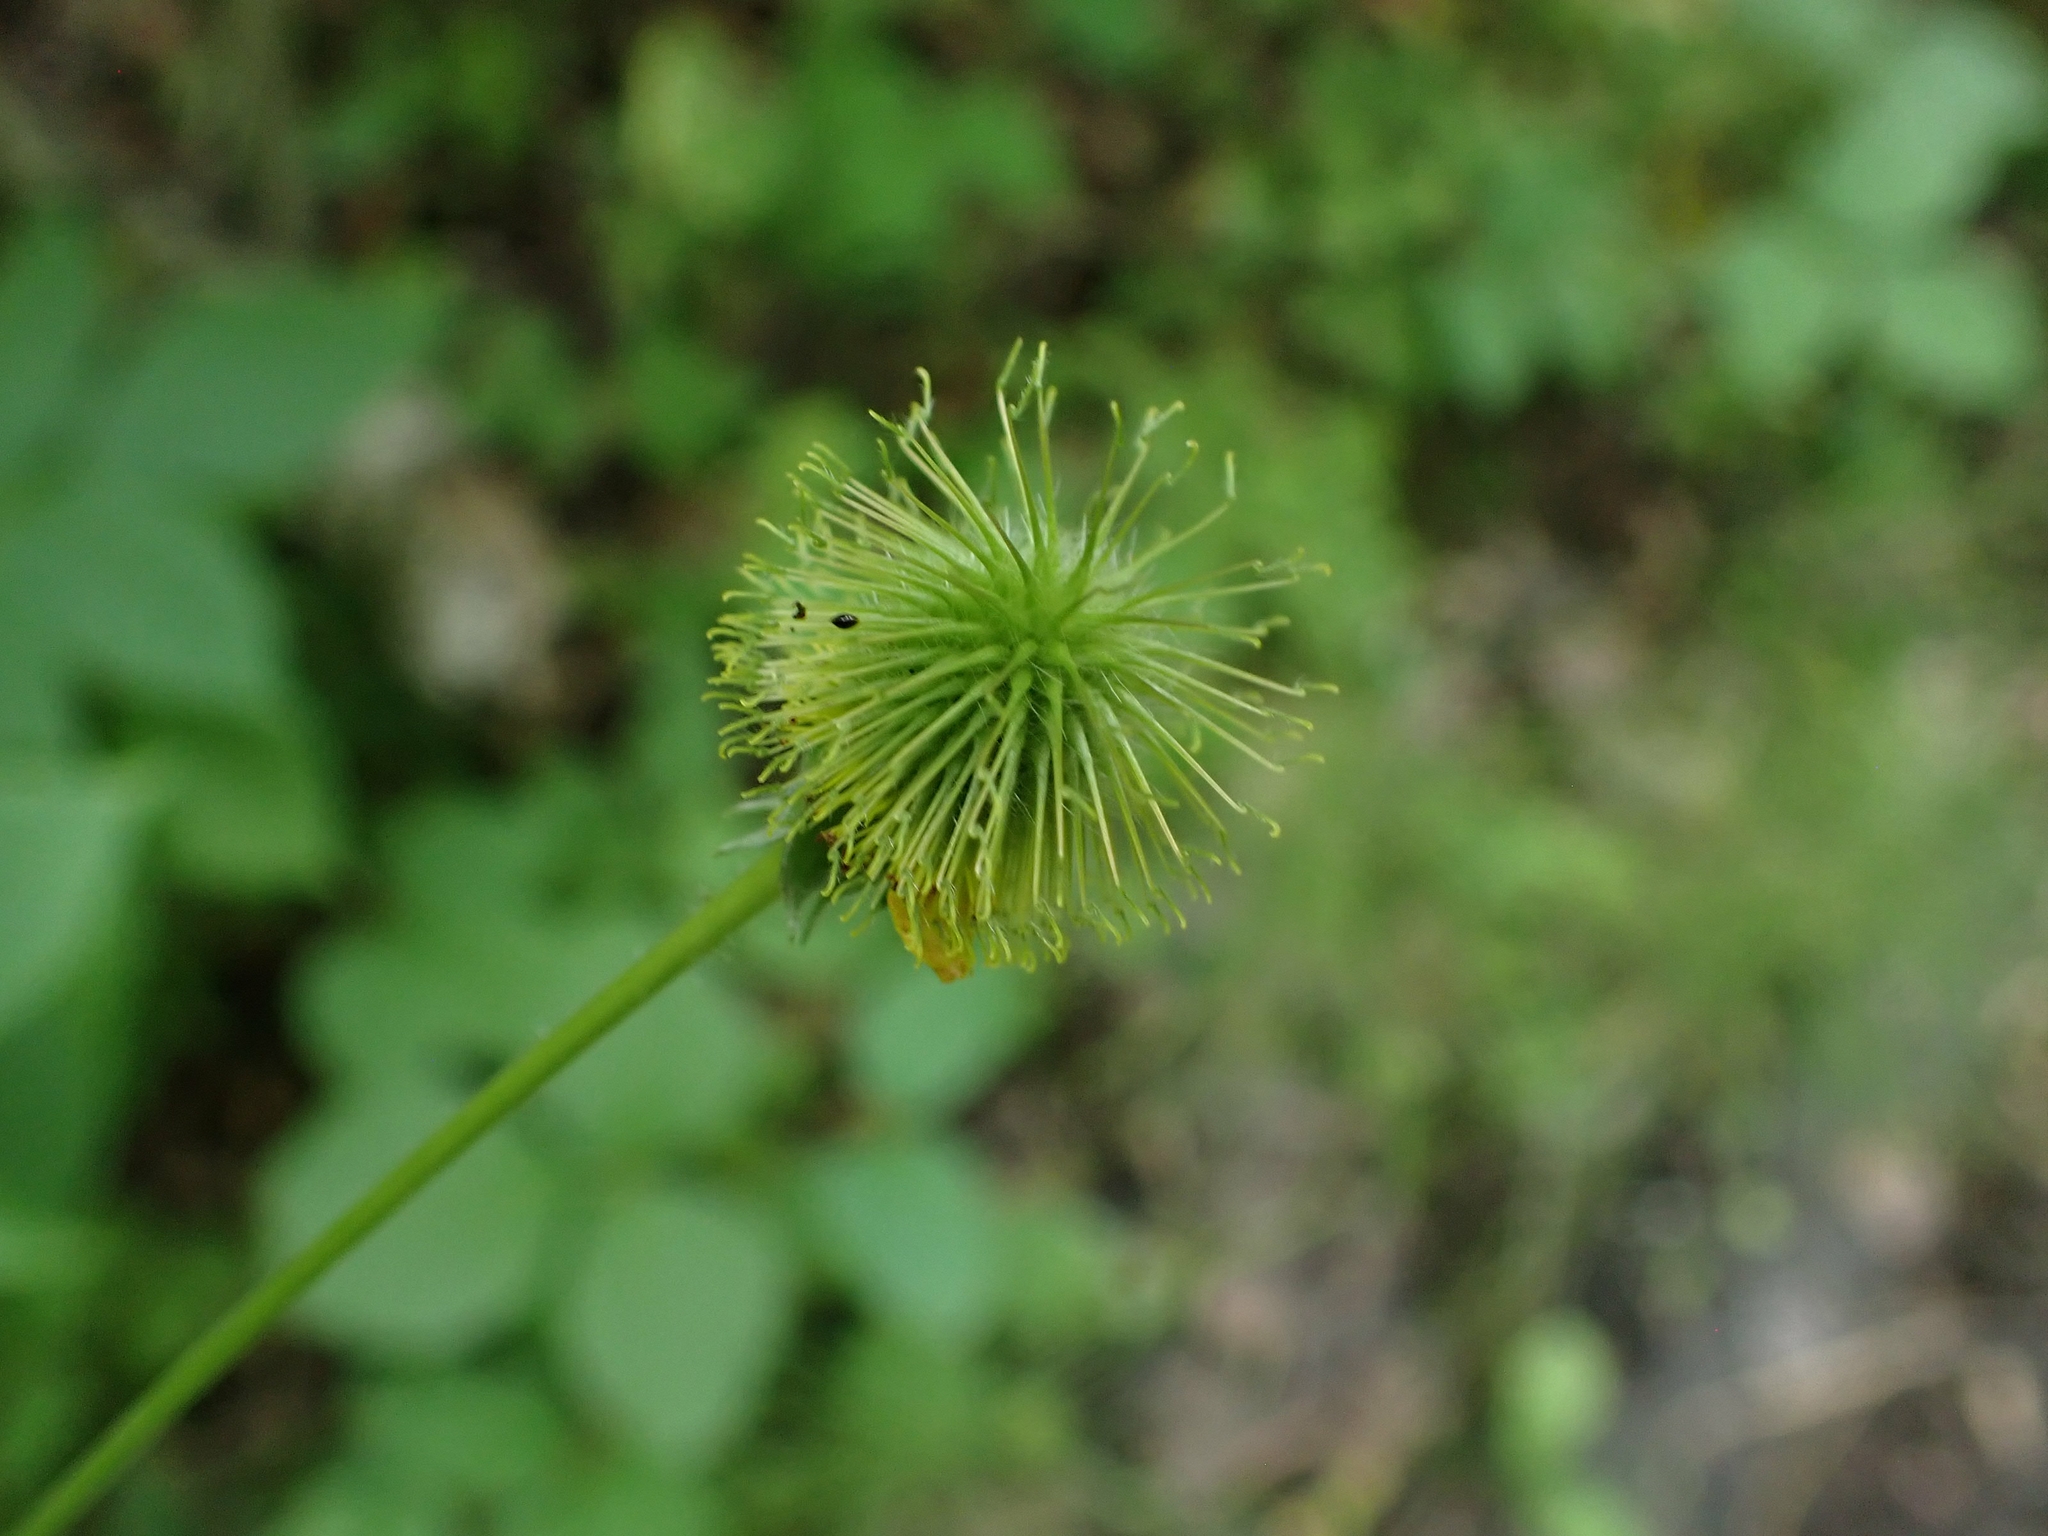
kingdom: Plantae
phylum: Tracheophyta
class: Magnoliopsida
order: Rosales
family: Rosaceae
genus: Geum
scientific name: Geum aleppicum
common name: Yellow avens
